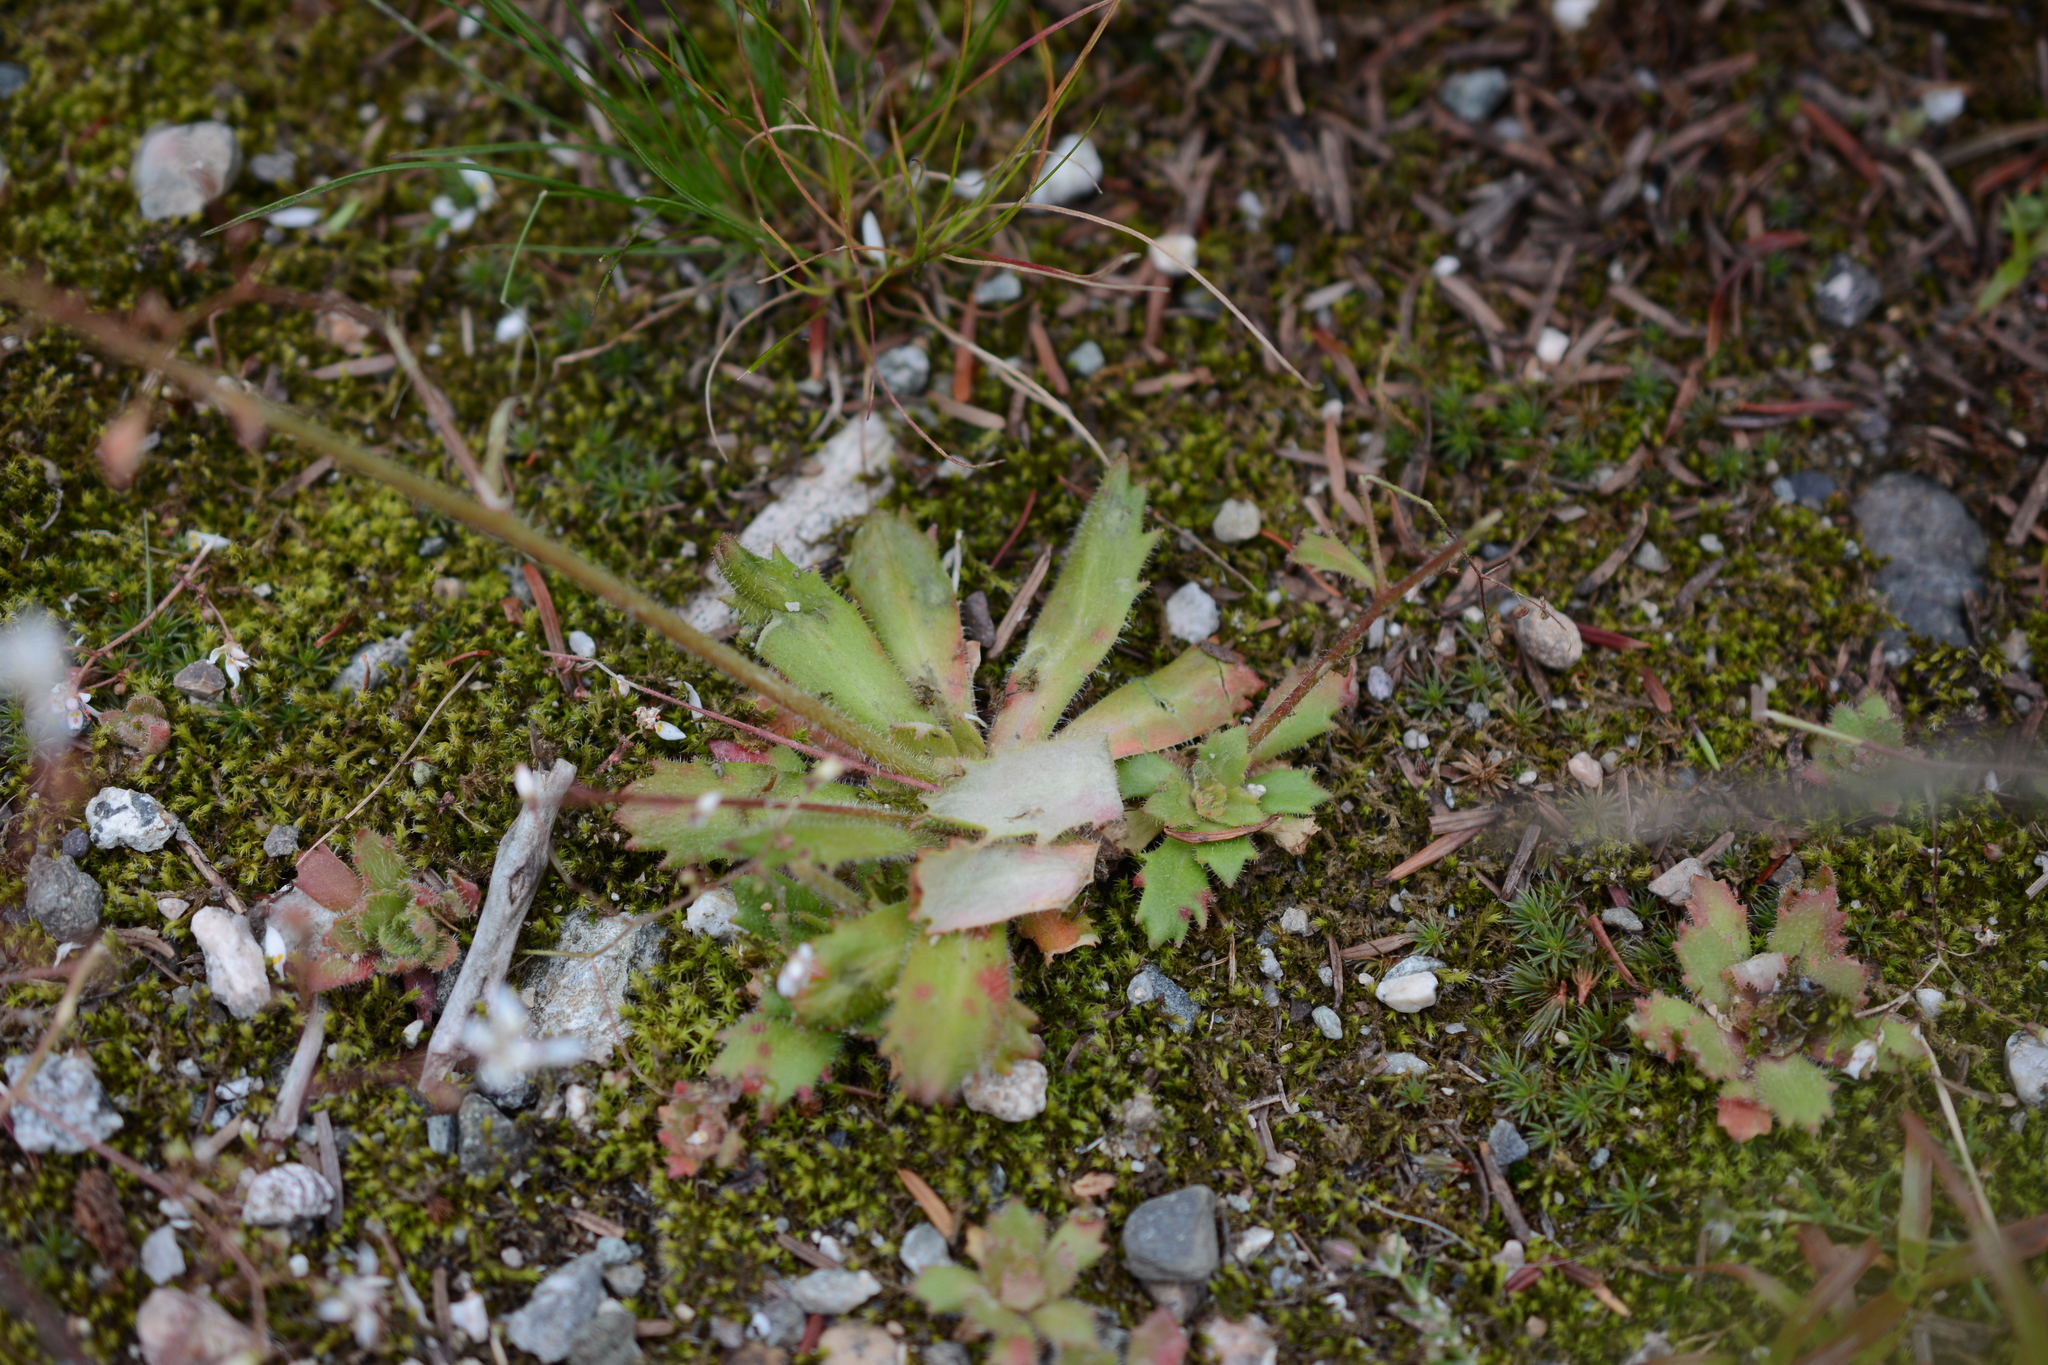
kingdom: Plantae
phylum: Tracheophyta
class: Magnoliopsida
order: Saxifragales
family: Saxifragaceae
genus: Micranthes
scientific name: Micranthes ferruginea
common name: Rusty saxifrage
